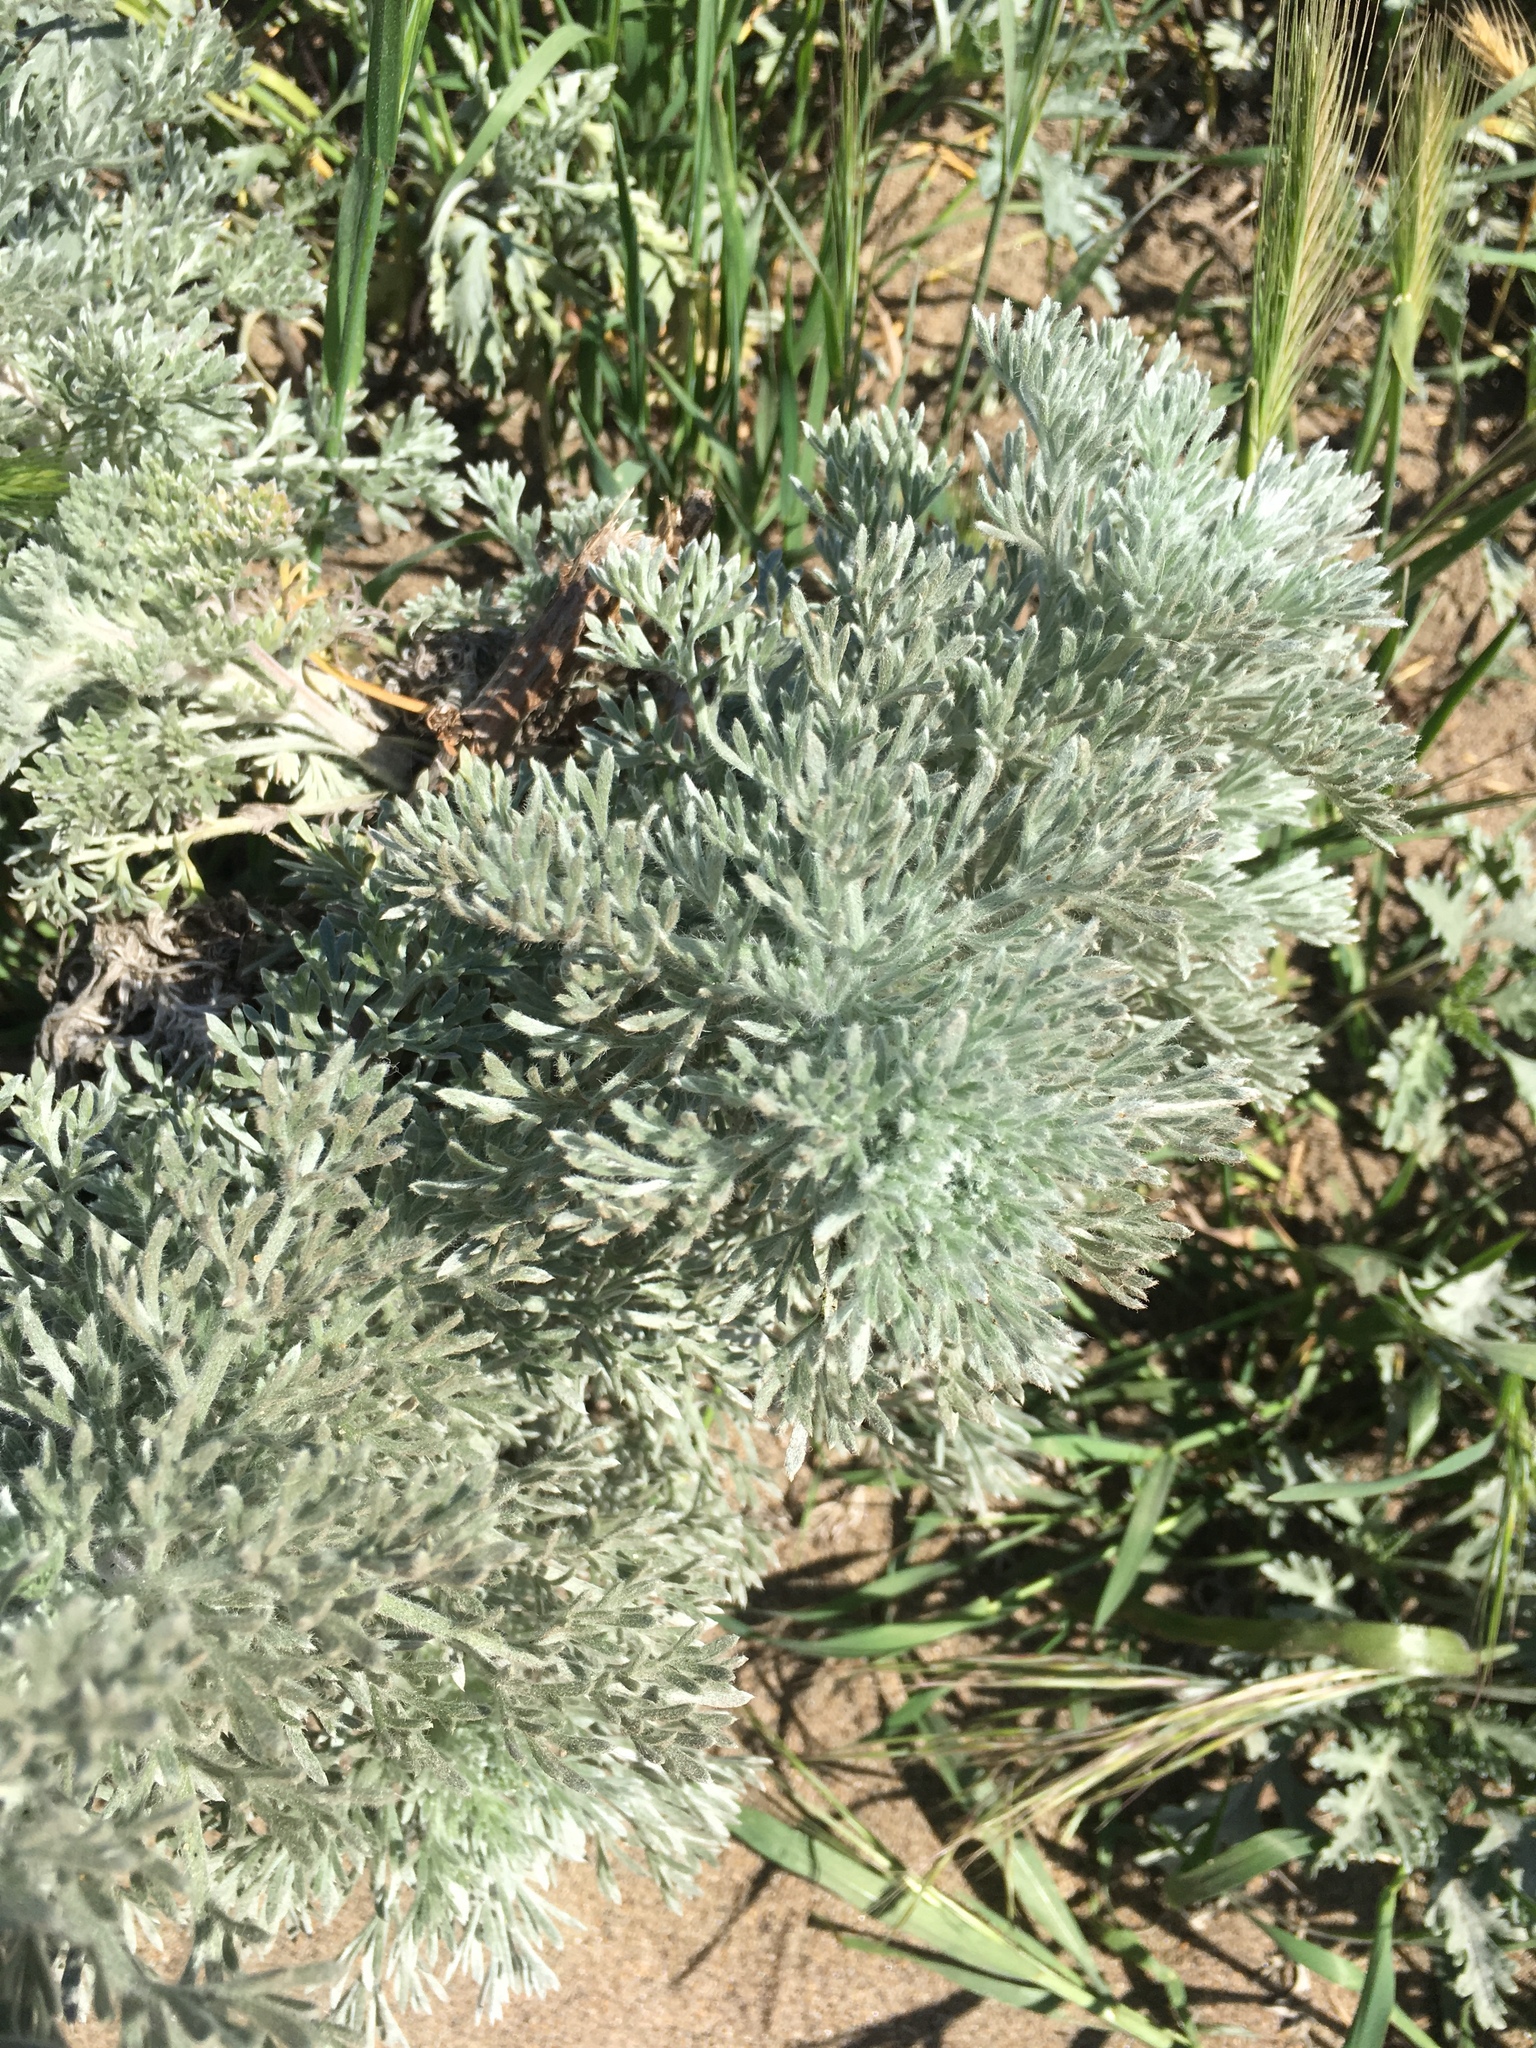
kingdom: Plantae
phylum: Tracheophyta
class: Magnoliopsida
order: Asterales
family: Asteraceae
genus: Artemisia
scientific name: Artemisia pycnocephala
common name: Coastal sagewort
